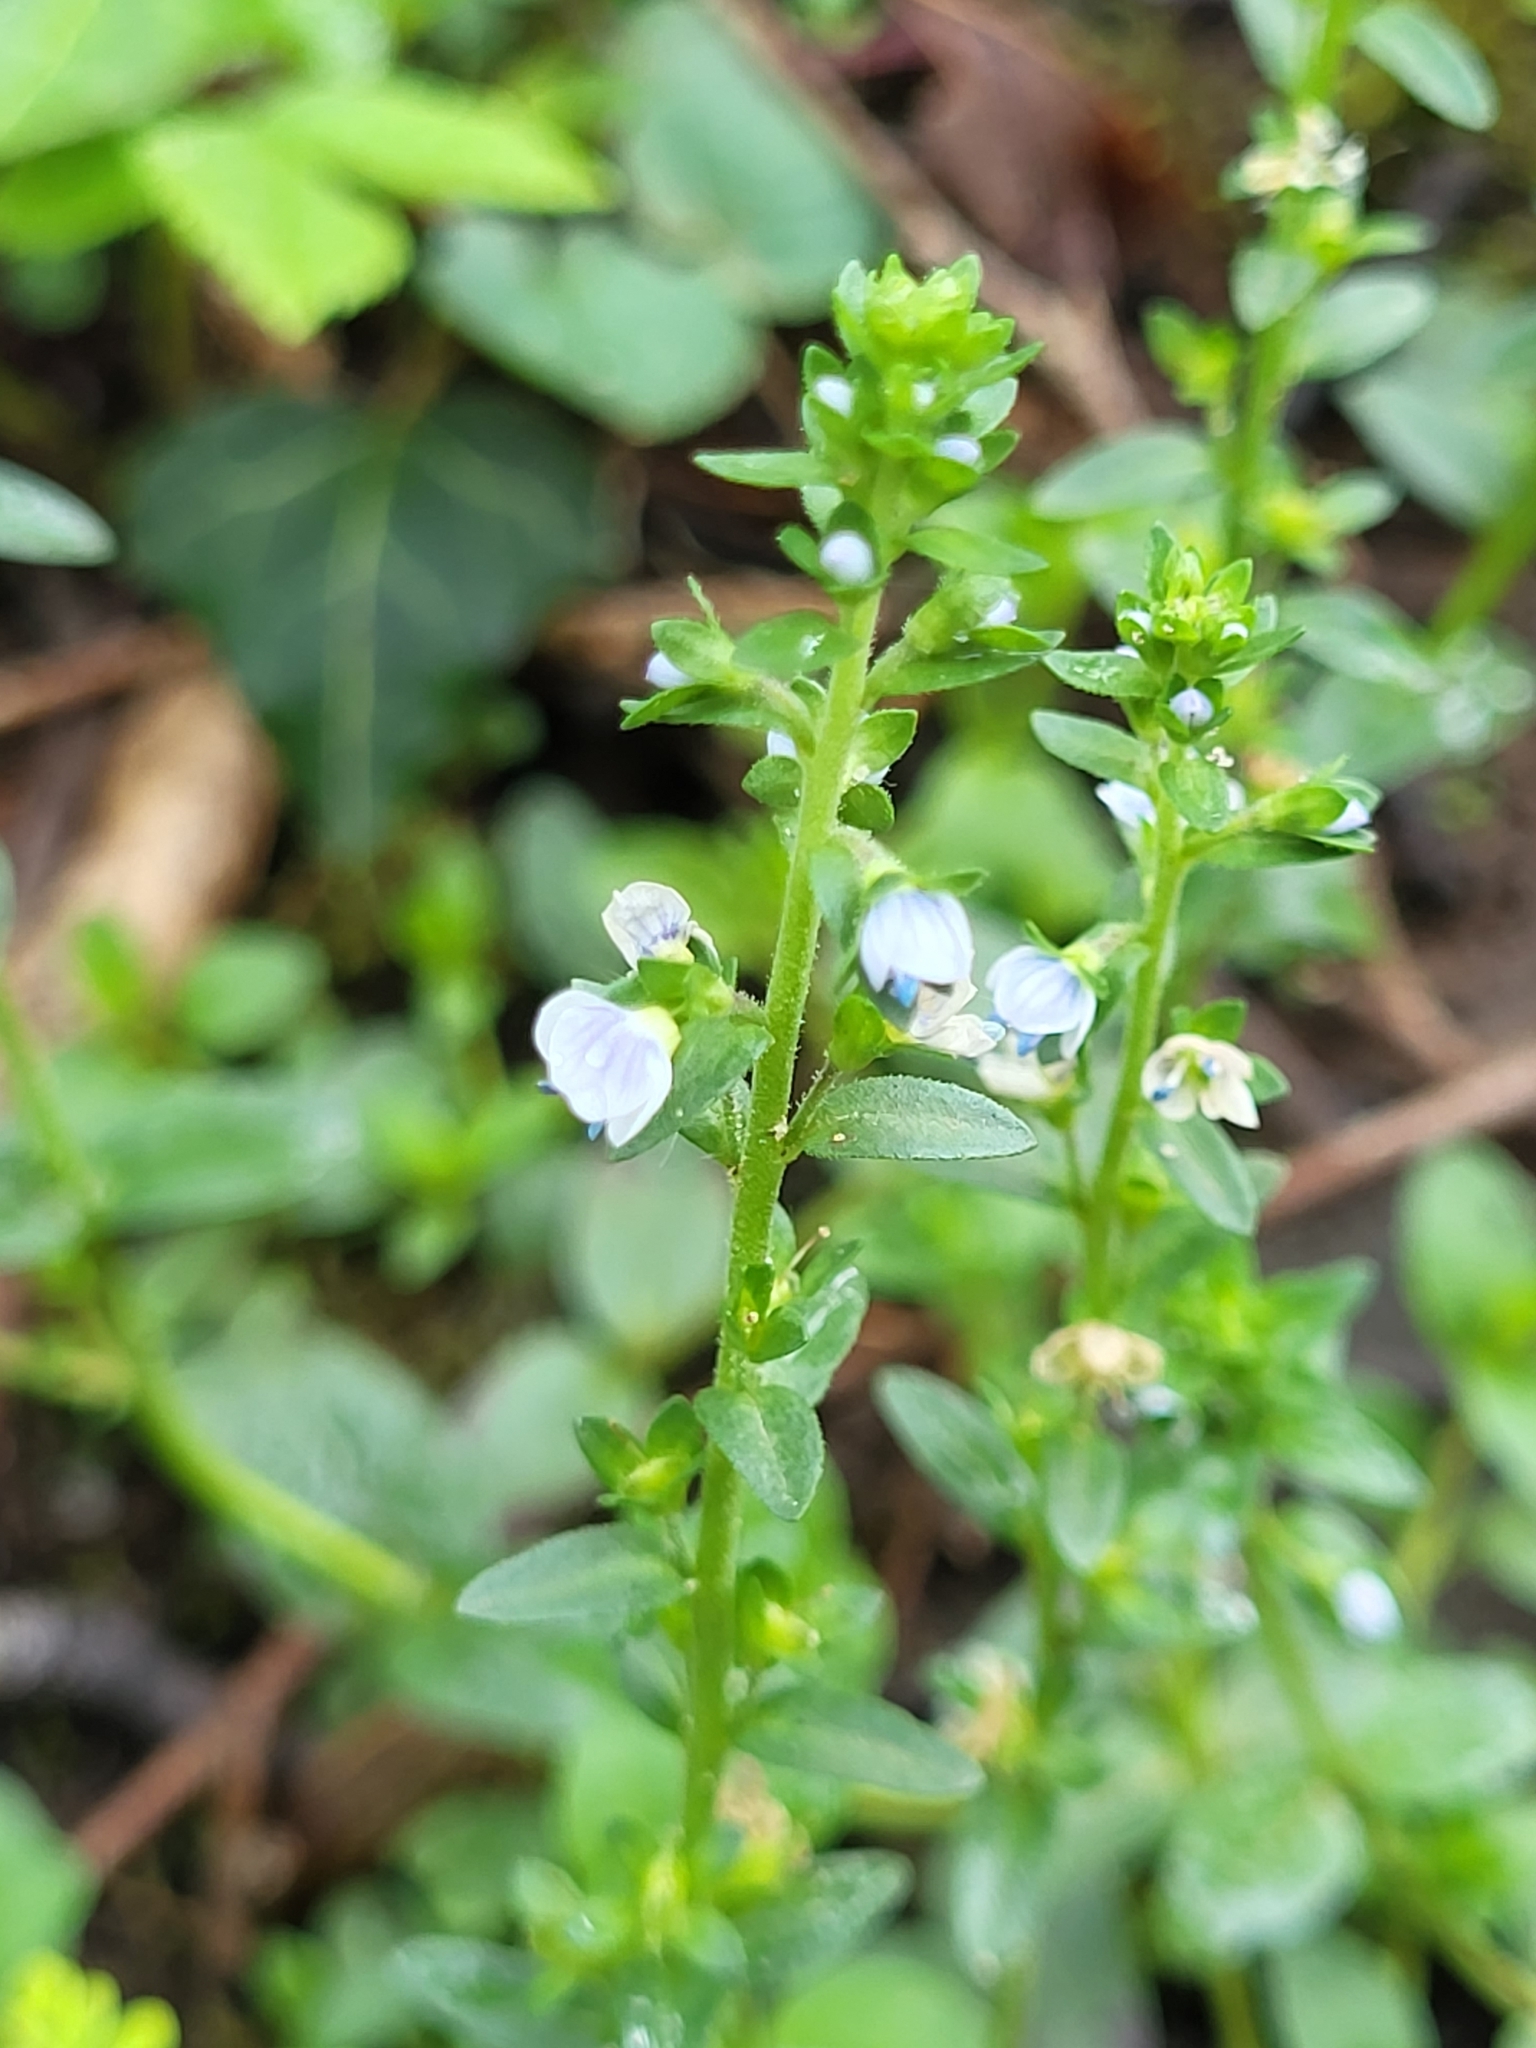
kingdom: Plantae
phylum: Tracheophyta
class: Magnoliopsida
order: Lamiales
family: Plantaginaceae
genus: Veronica
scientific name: Veronica serpyllifolia
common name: Thyme-leaved speedwell
